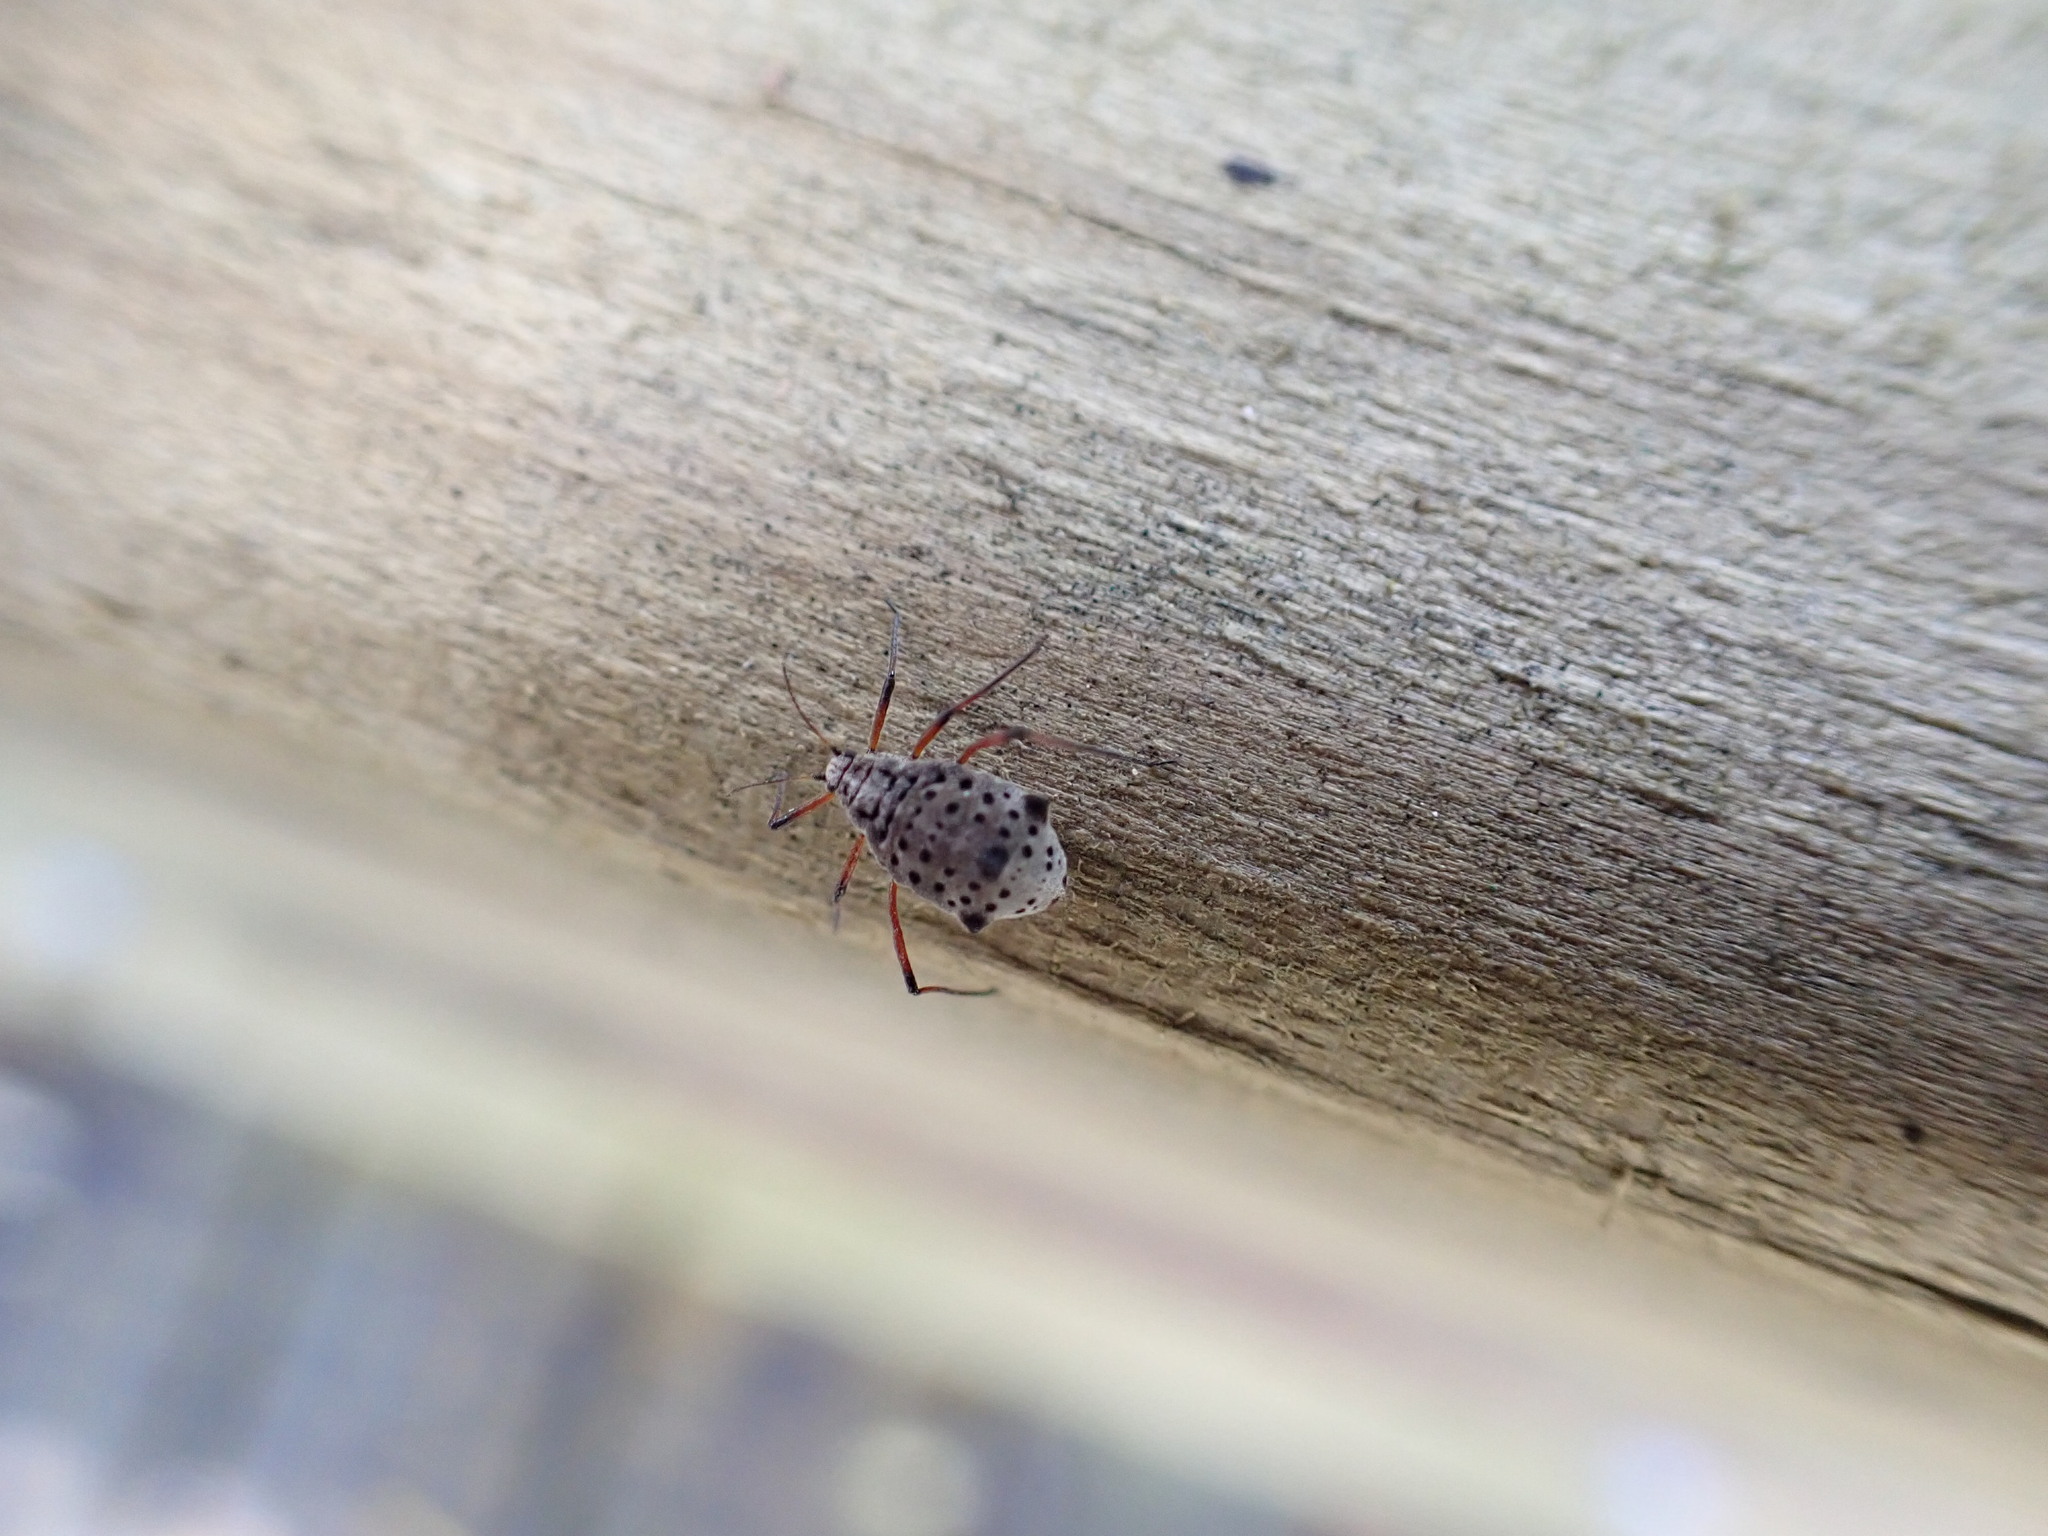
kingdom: Animalia
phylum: Arthropoda
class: Insecta
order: Hemiptera
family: Aphididae
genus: Tuberolachnus
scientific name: Tuberolachnus salignus
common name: Giant willow aphid
